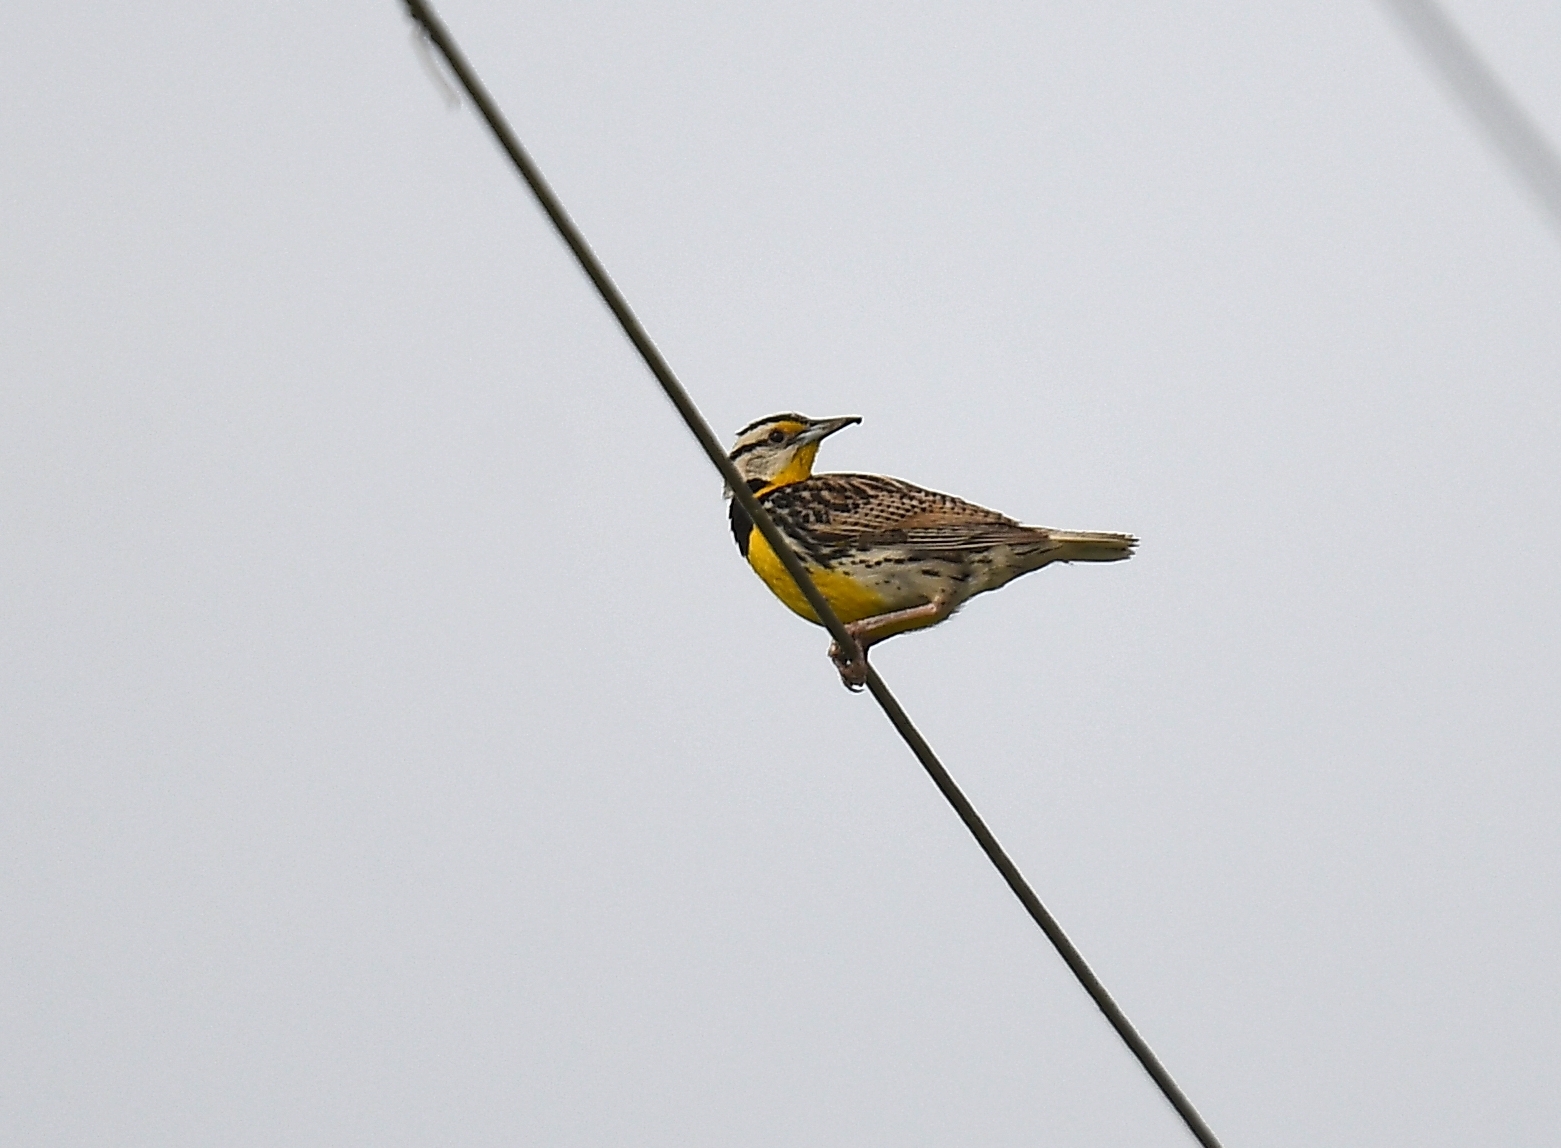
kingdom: Animalia
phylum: Chordata
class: Aves
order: Passeriformes
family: Icteridae
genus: Sturnella
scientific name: Sturnella magna
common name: Eastern meadowlark
